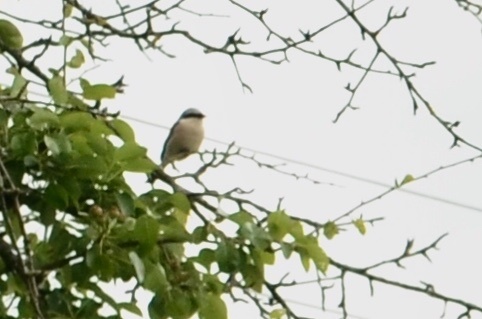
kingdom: Animalia
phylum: Chordata
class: Aves
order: Passeriformes
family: Laniidae
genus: Lanius
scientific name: Lanius collurio
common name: Red-backed shrike
